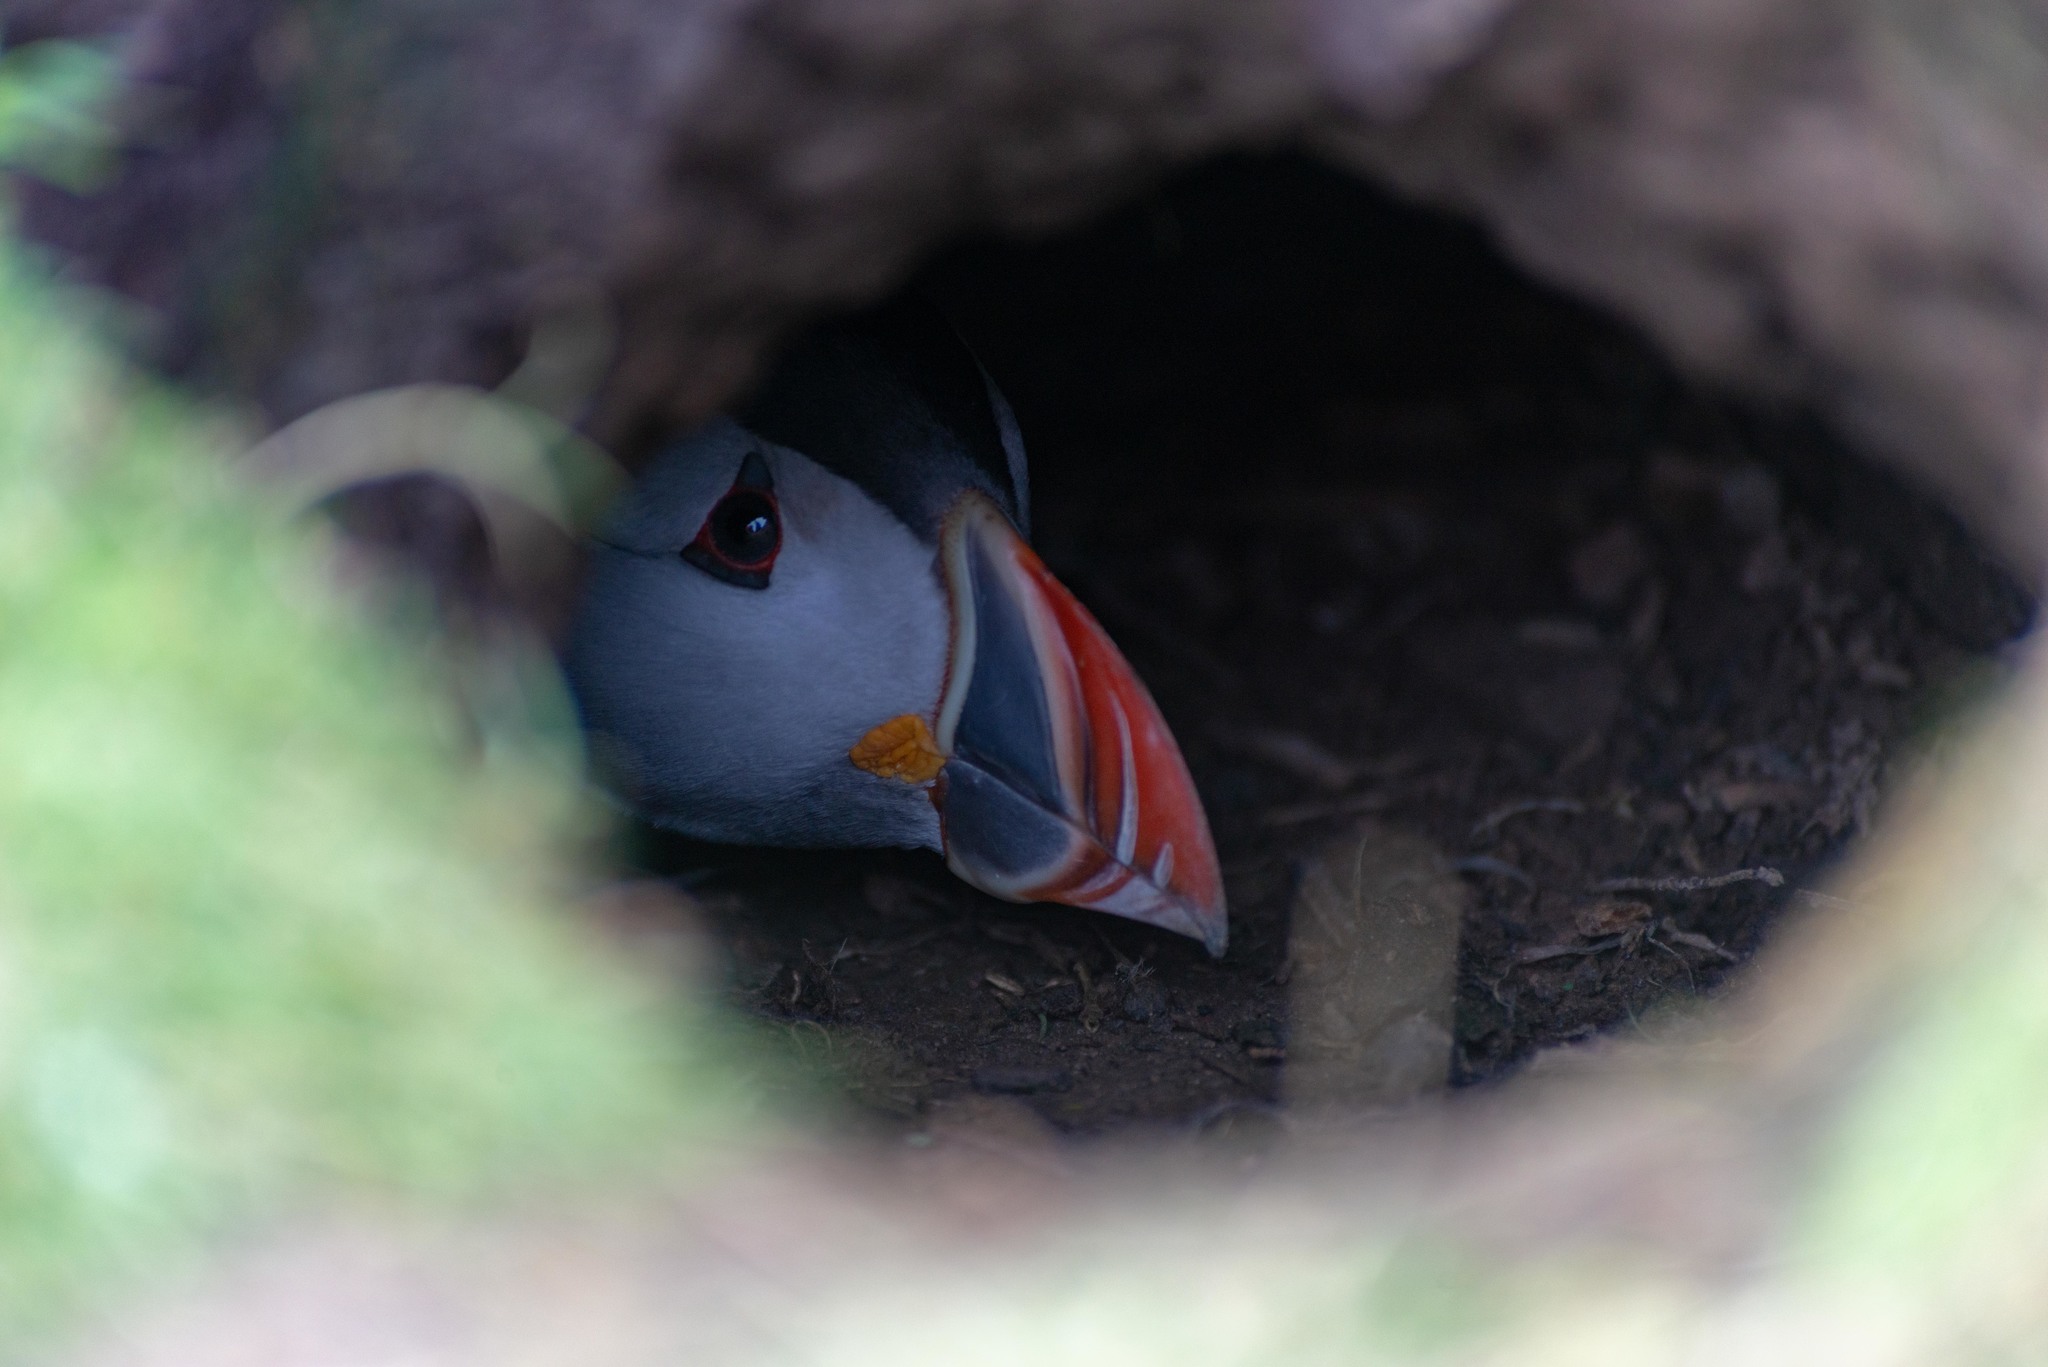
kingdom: Animalia
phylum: Chordata
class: Aves
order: Charadriiformes
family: Alcidae
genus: Fratercula
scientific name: Fratercula arctica
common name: Atlantic puffin
